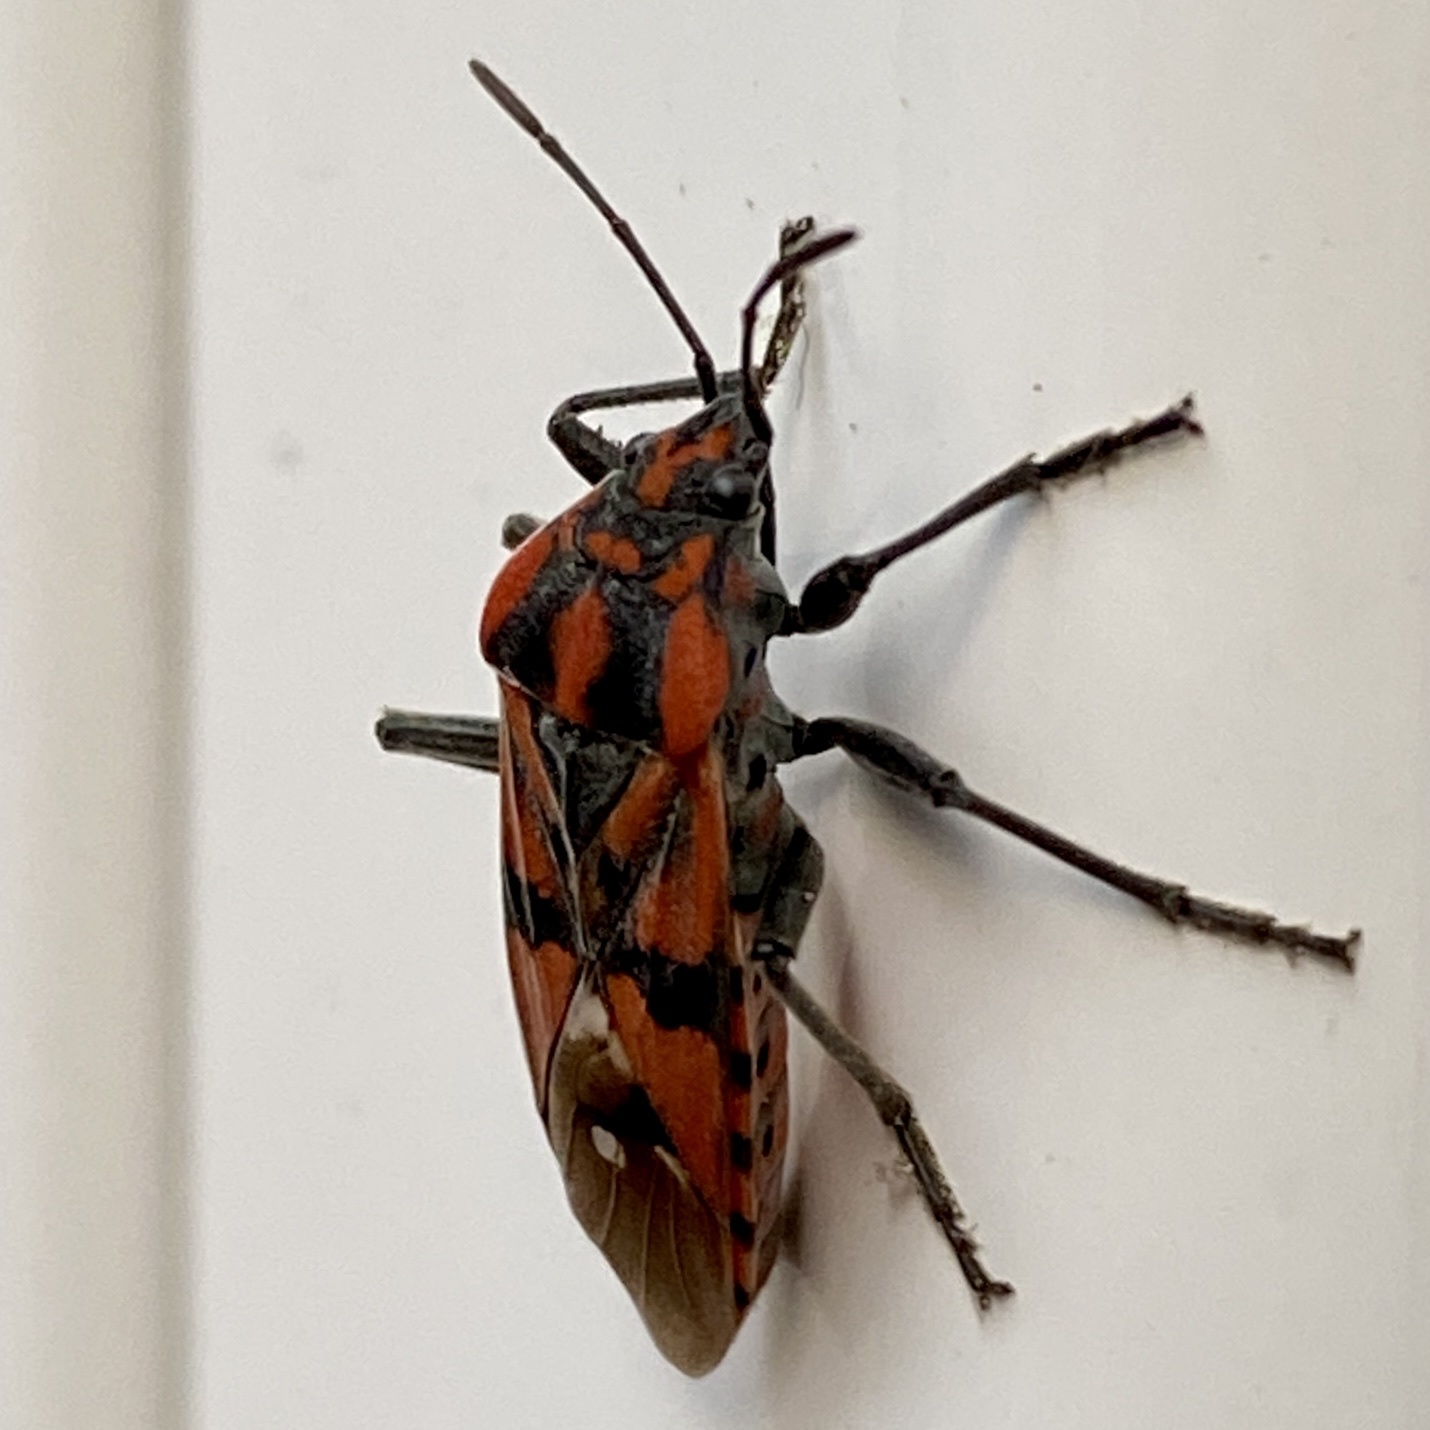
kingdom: Animalia
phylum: Arthropoda
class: Insecta
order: Hemiptera
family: Lygaeidae
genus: Spilostethus
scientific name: Spilostethus pandurus
